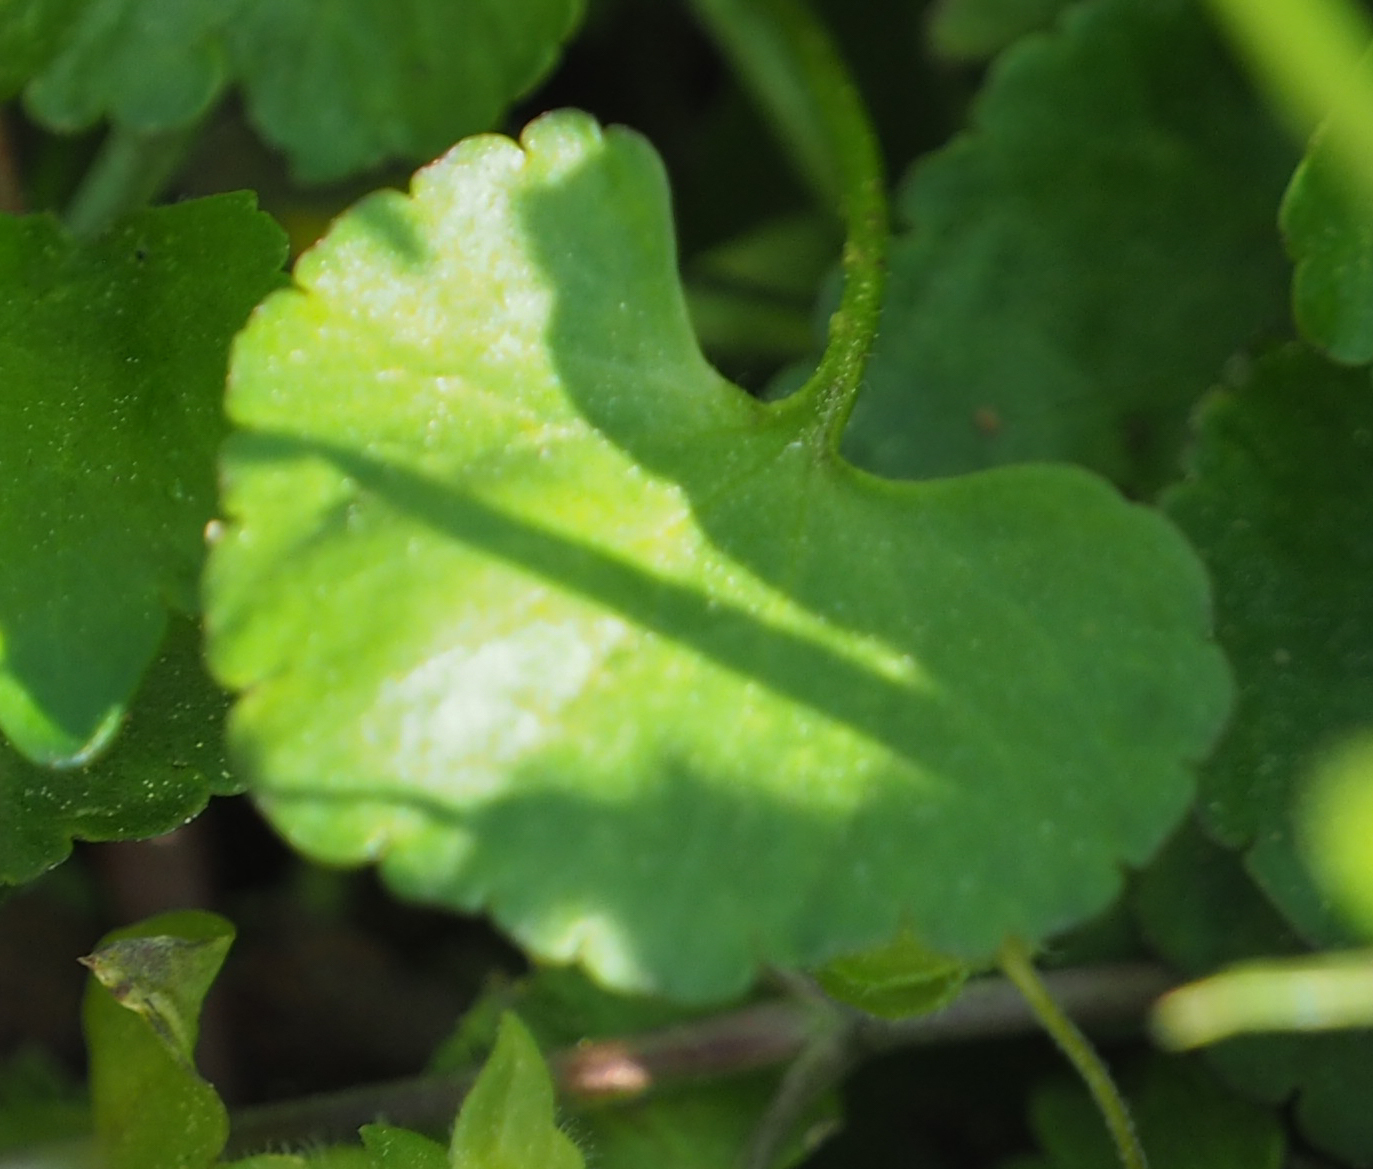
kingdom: Plantae
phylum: Tracheophyta
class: Magnoliopsida
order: Ranunculales
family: Ranunculaceae
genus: Ranunculus
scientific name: Ranunculus abortivus
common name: Early wood buttercup
